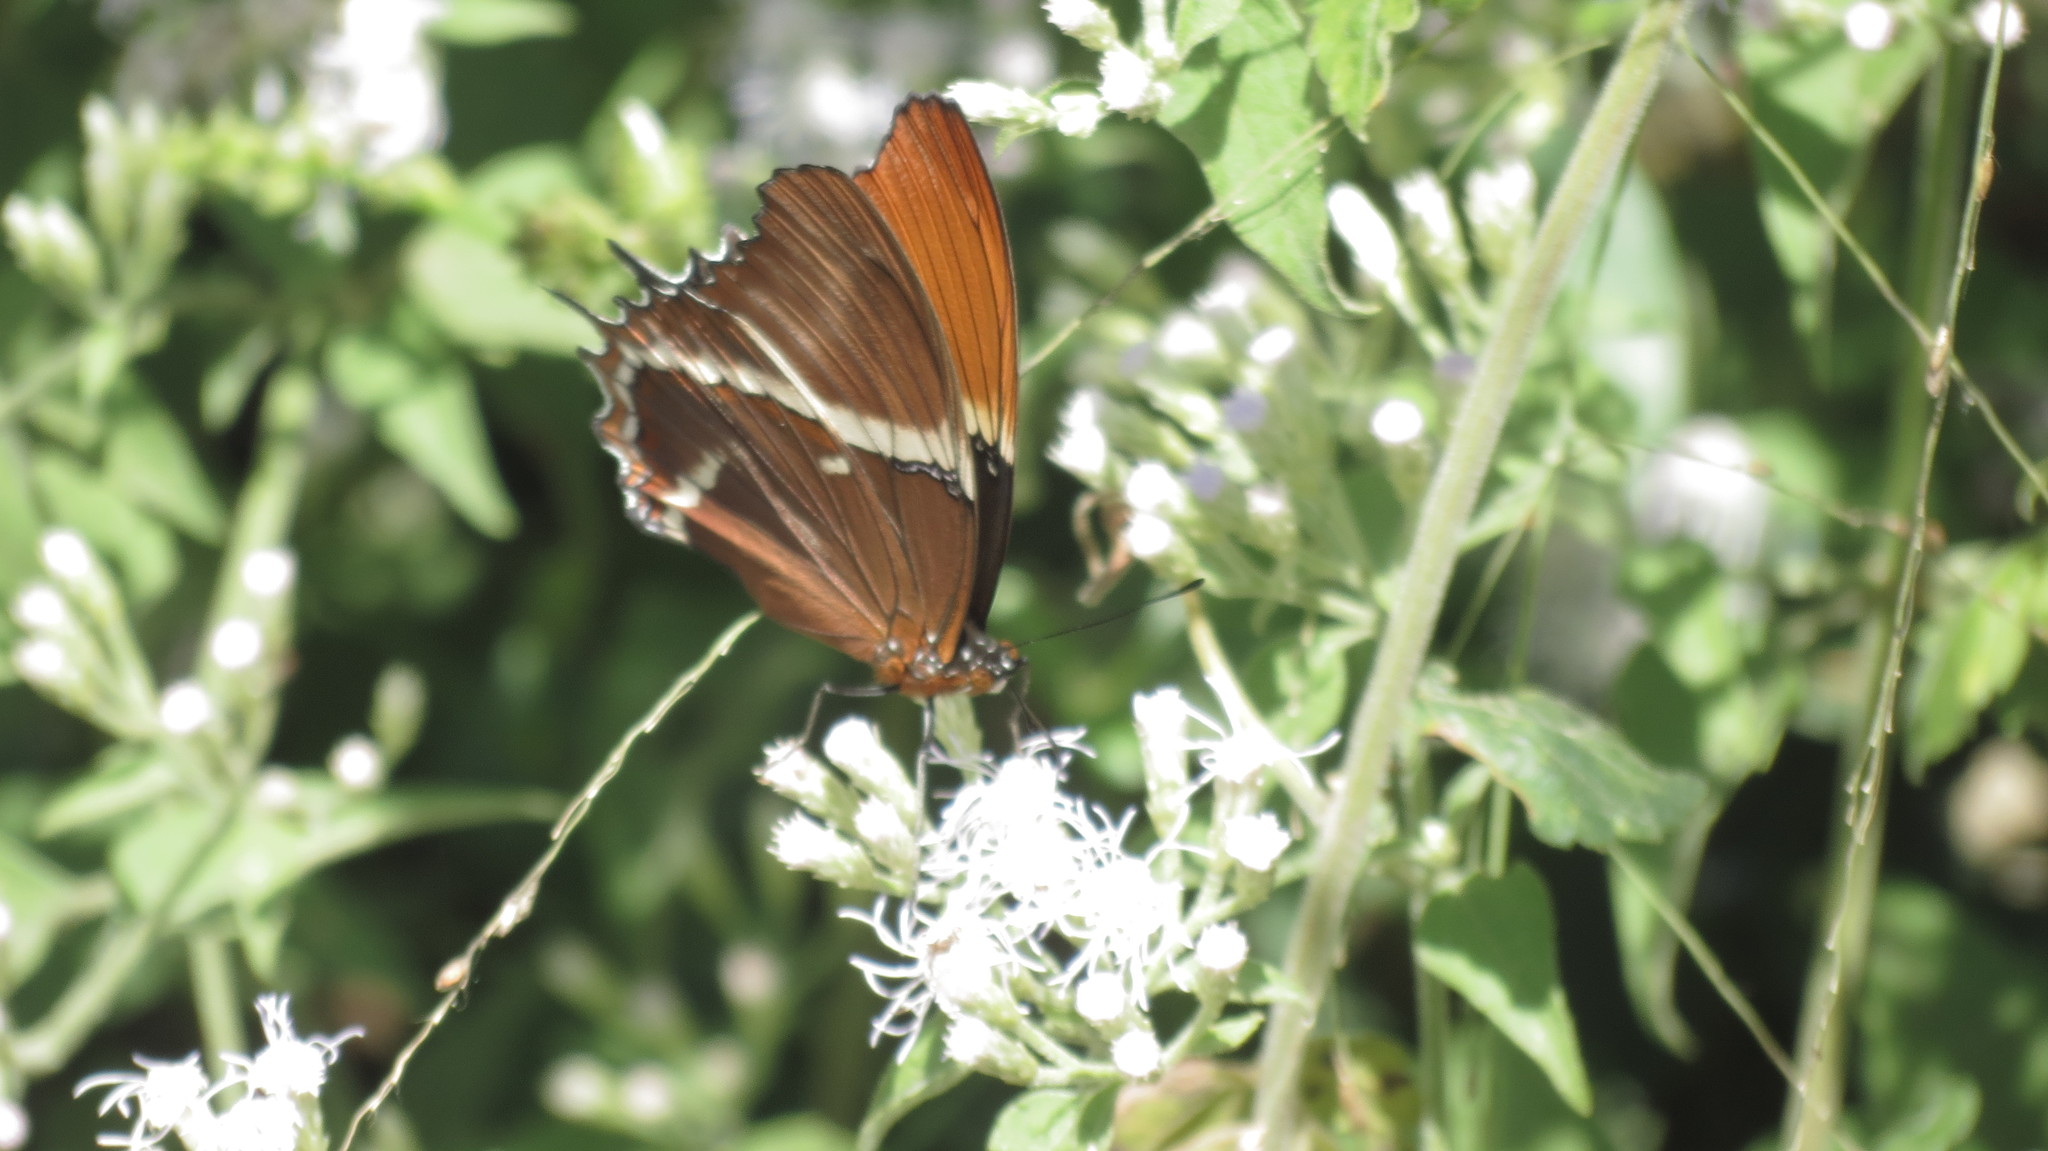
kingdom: Animalia
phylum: Arthropoda
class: Insecta
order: Lepidoptera
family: Nymphalidae
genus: Siproeta
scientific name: Siproeta epaphus
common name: Rusty-tipped page
